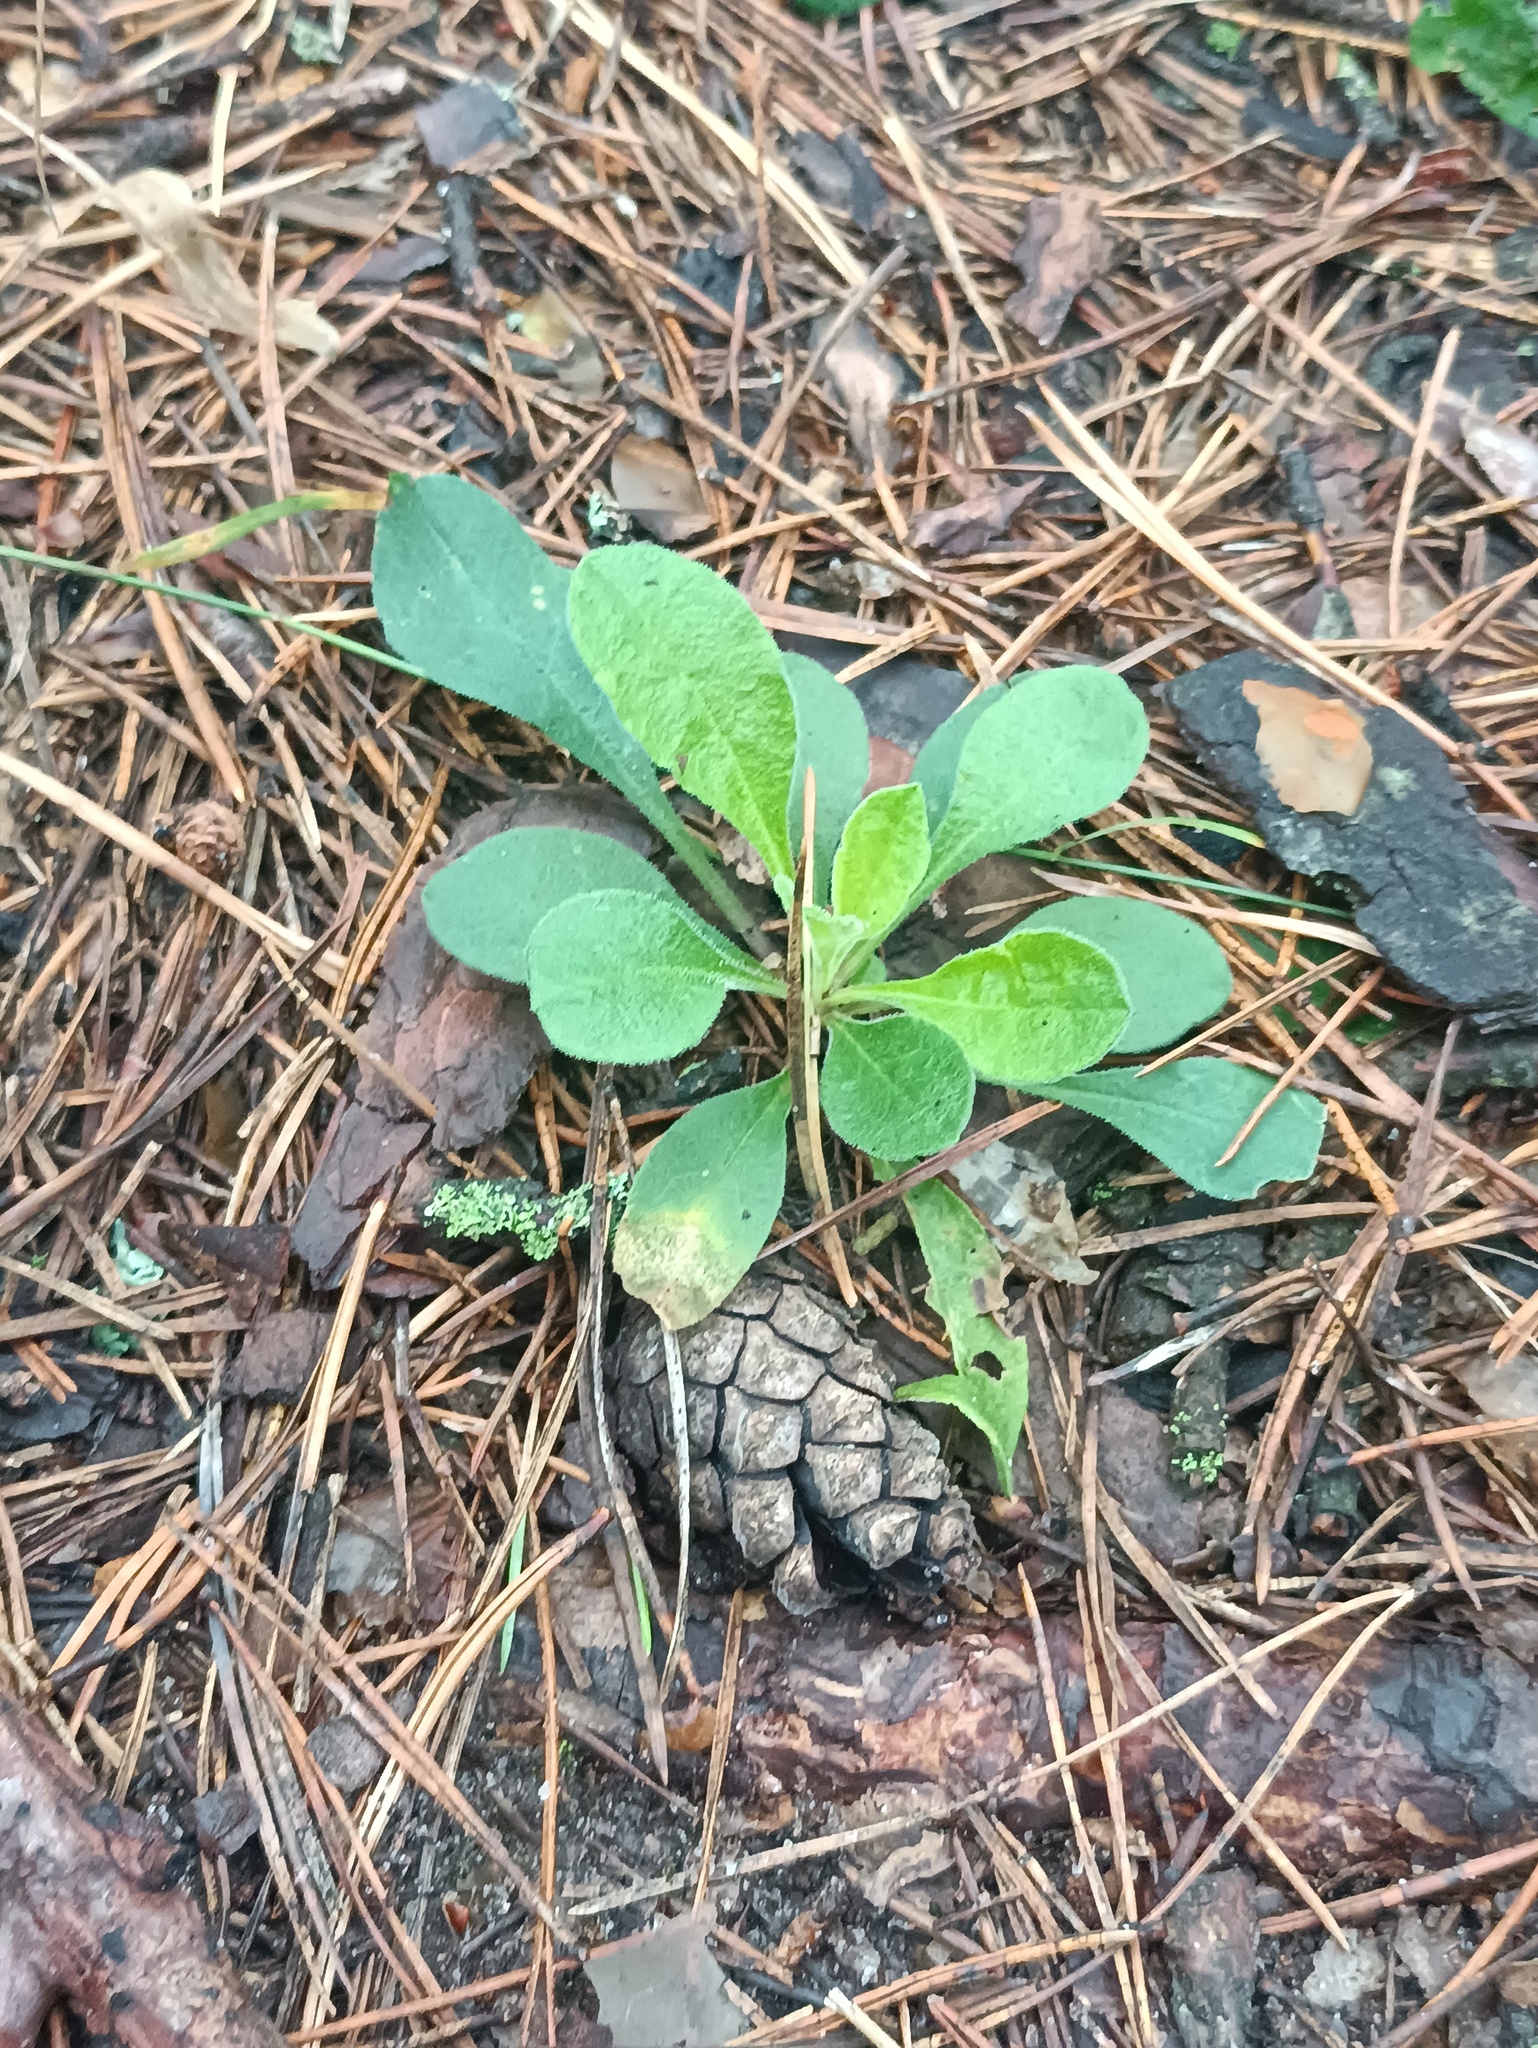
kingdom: Plantae
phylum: Tracheophyta
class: Magnoliopsida
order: Caryophyllales
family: Caryophyllaceae
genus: Silene
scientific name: Silene nutans
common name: Nottingham catchfly
